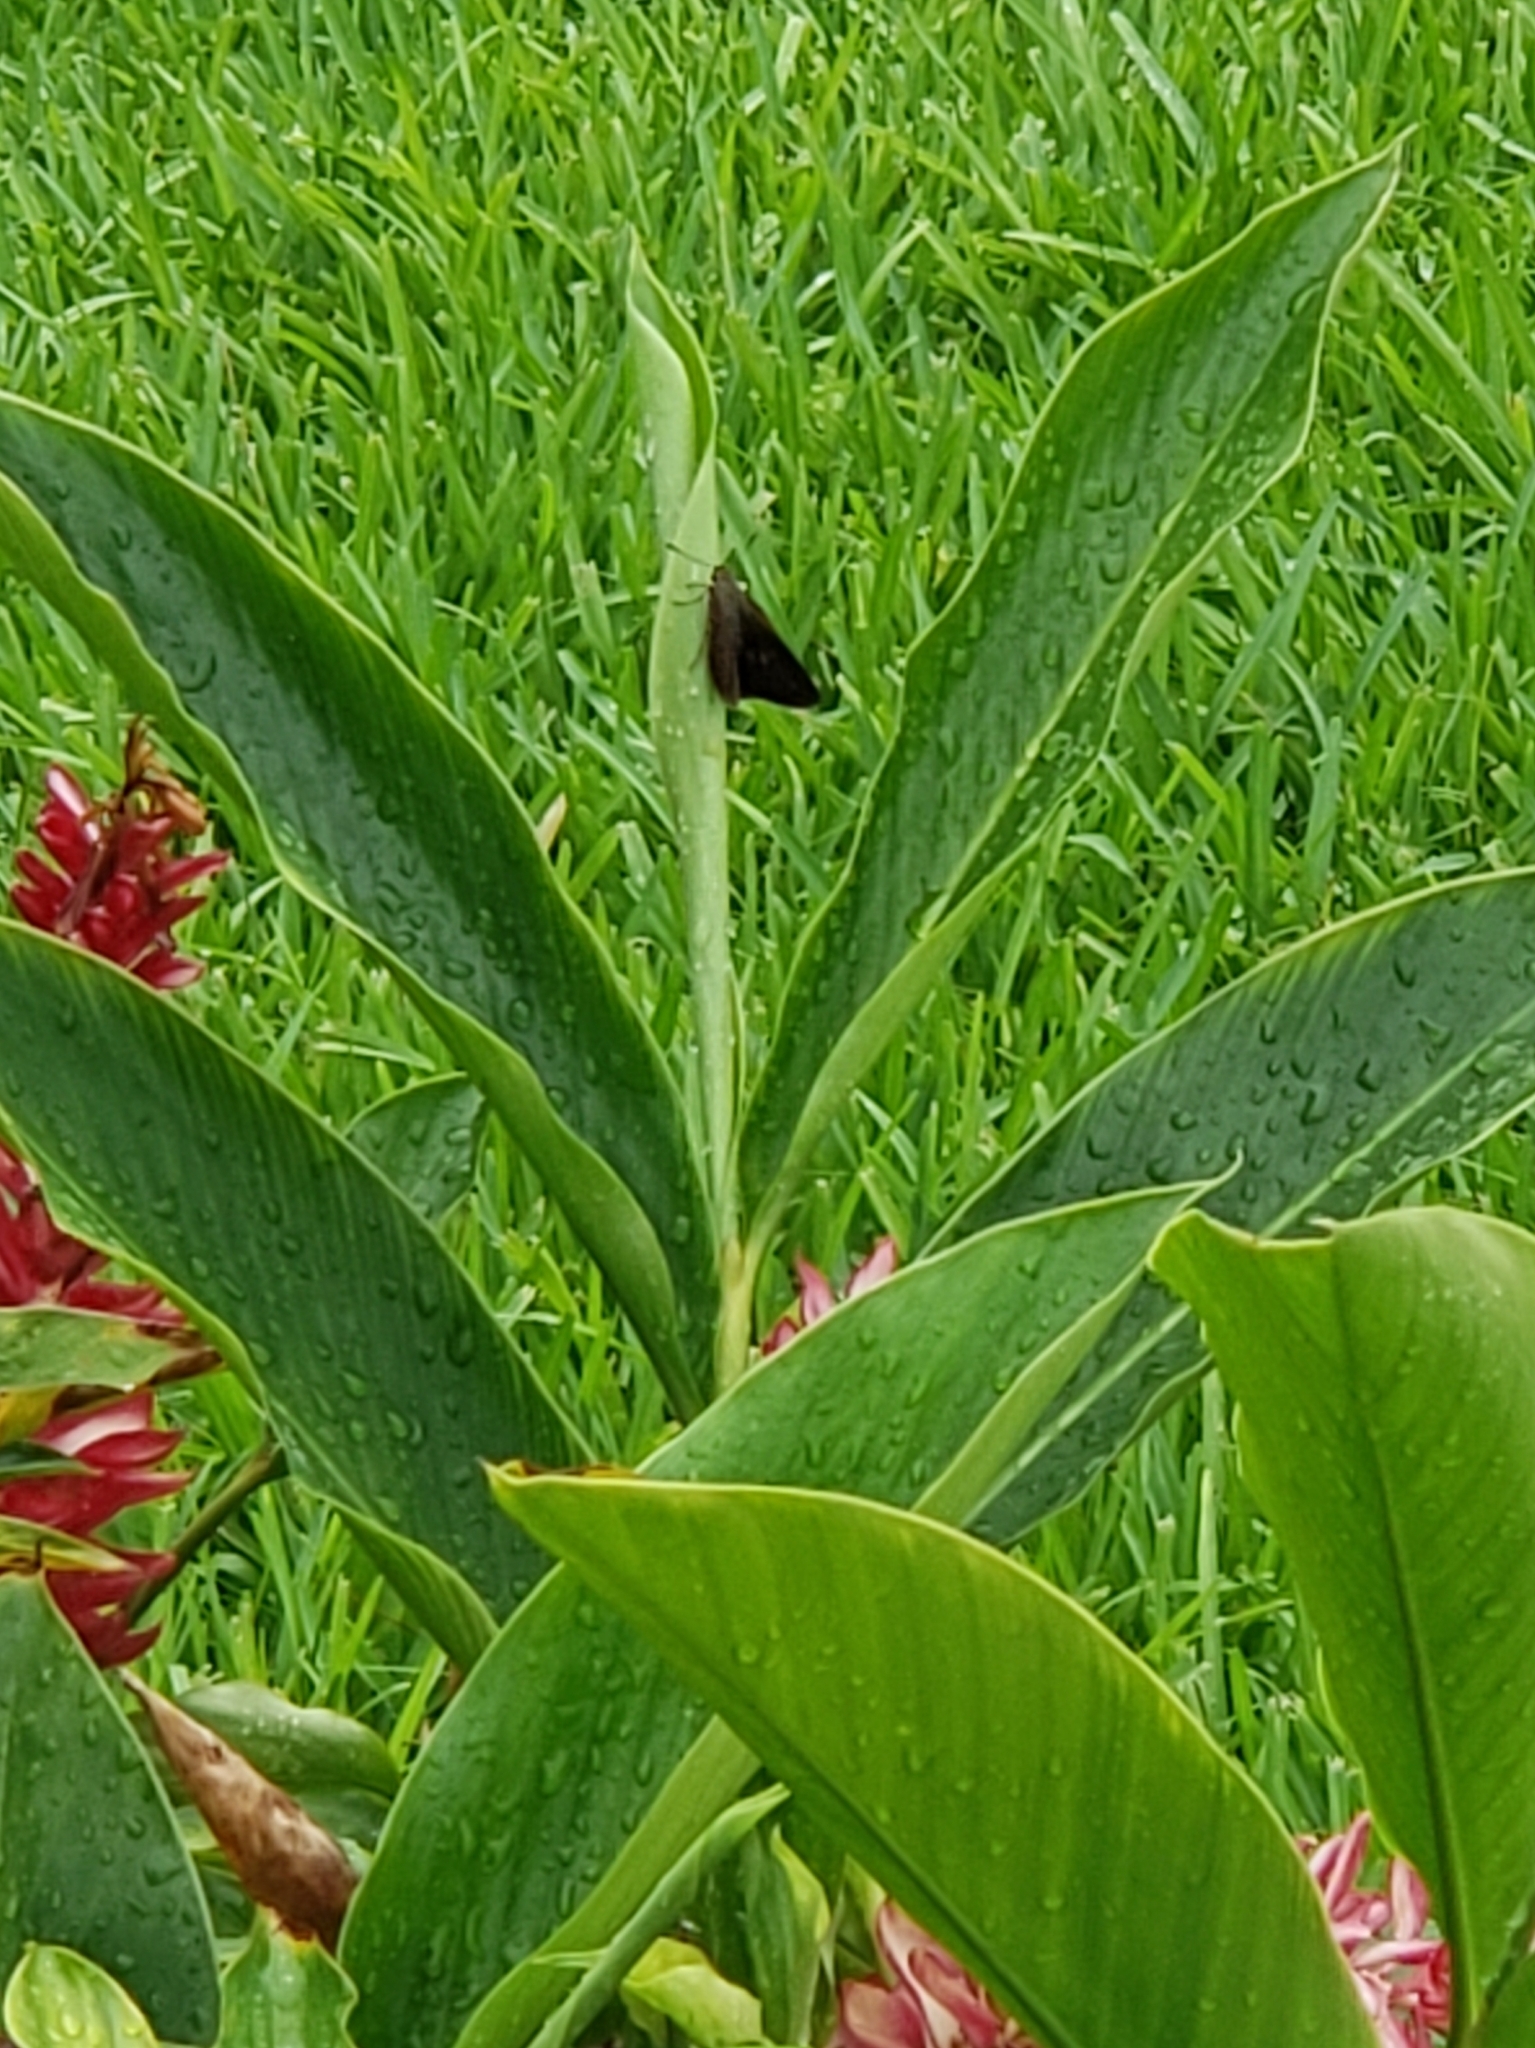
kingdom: Animalia
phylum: Arthropoda
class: Insecta
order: Lepidoptera
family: Hesperiidae
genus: Asbolis
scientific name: Asbolis capucinus
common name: Monk skipper
